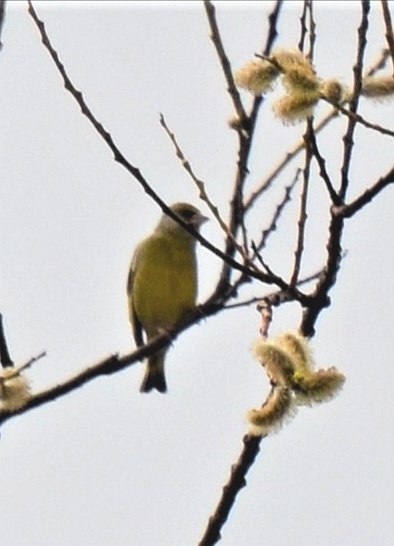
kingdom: Plantae
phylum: Tracheophyta
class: Liliopsida
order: Poales
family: Poaceae
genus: Chloris
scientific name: Chloris chloris
